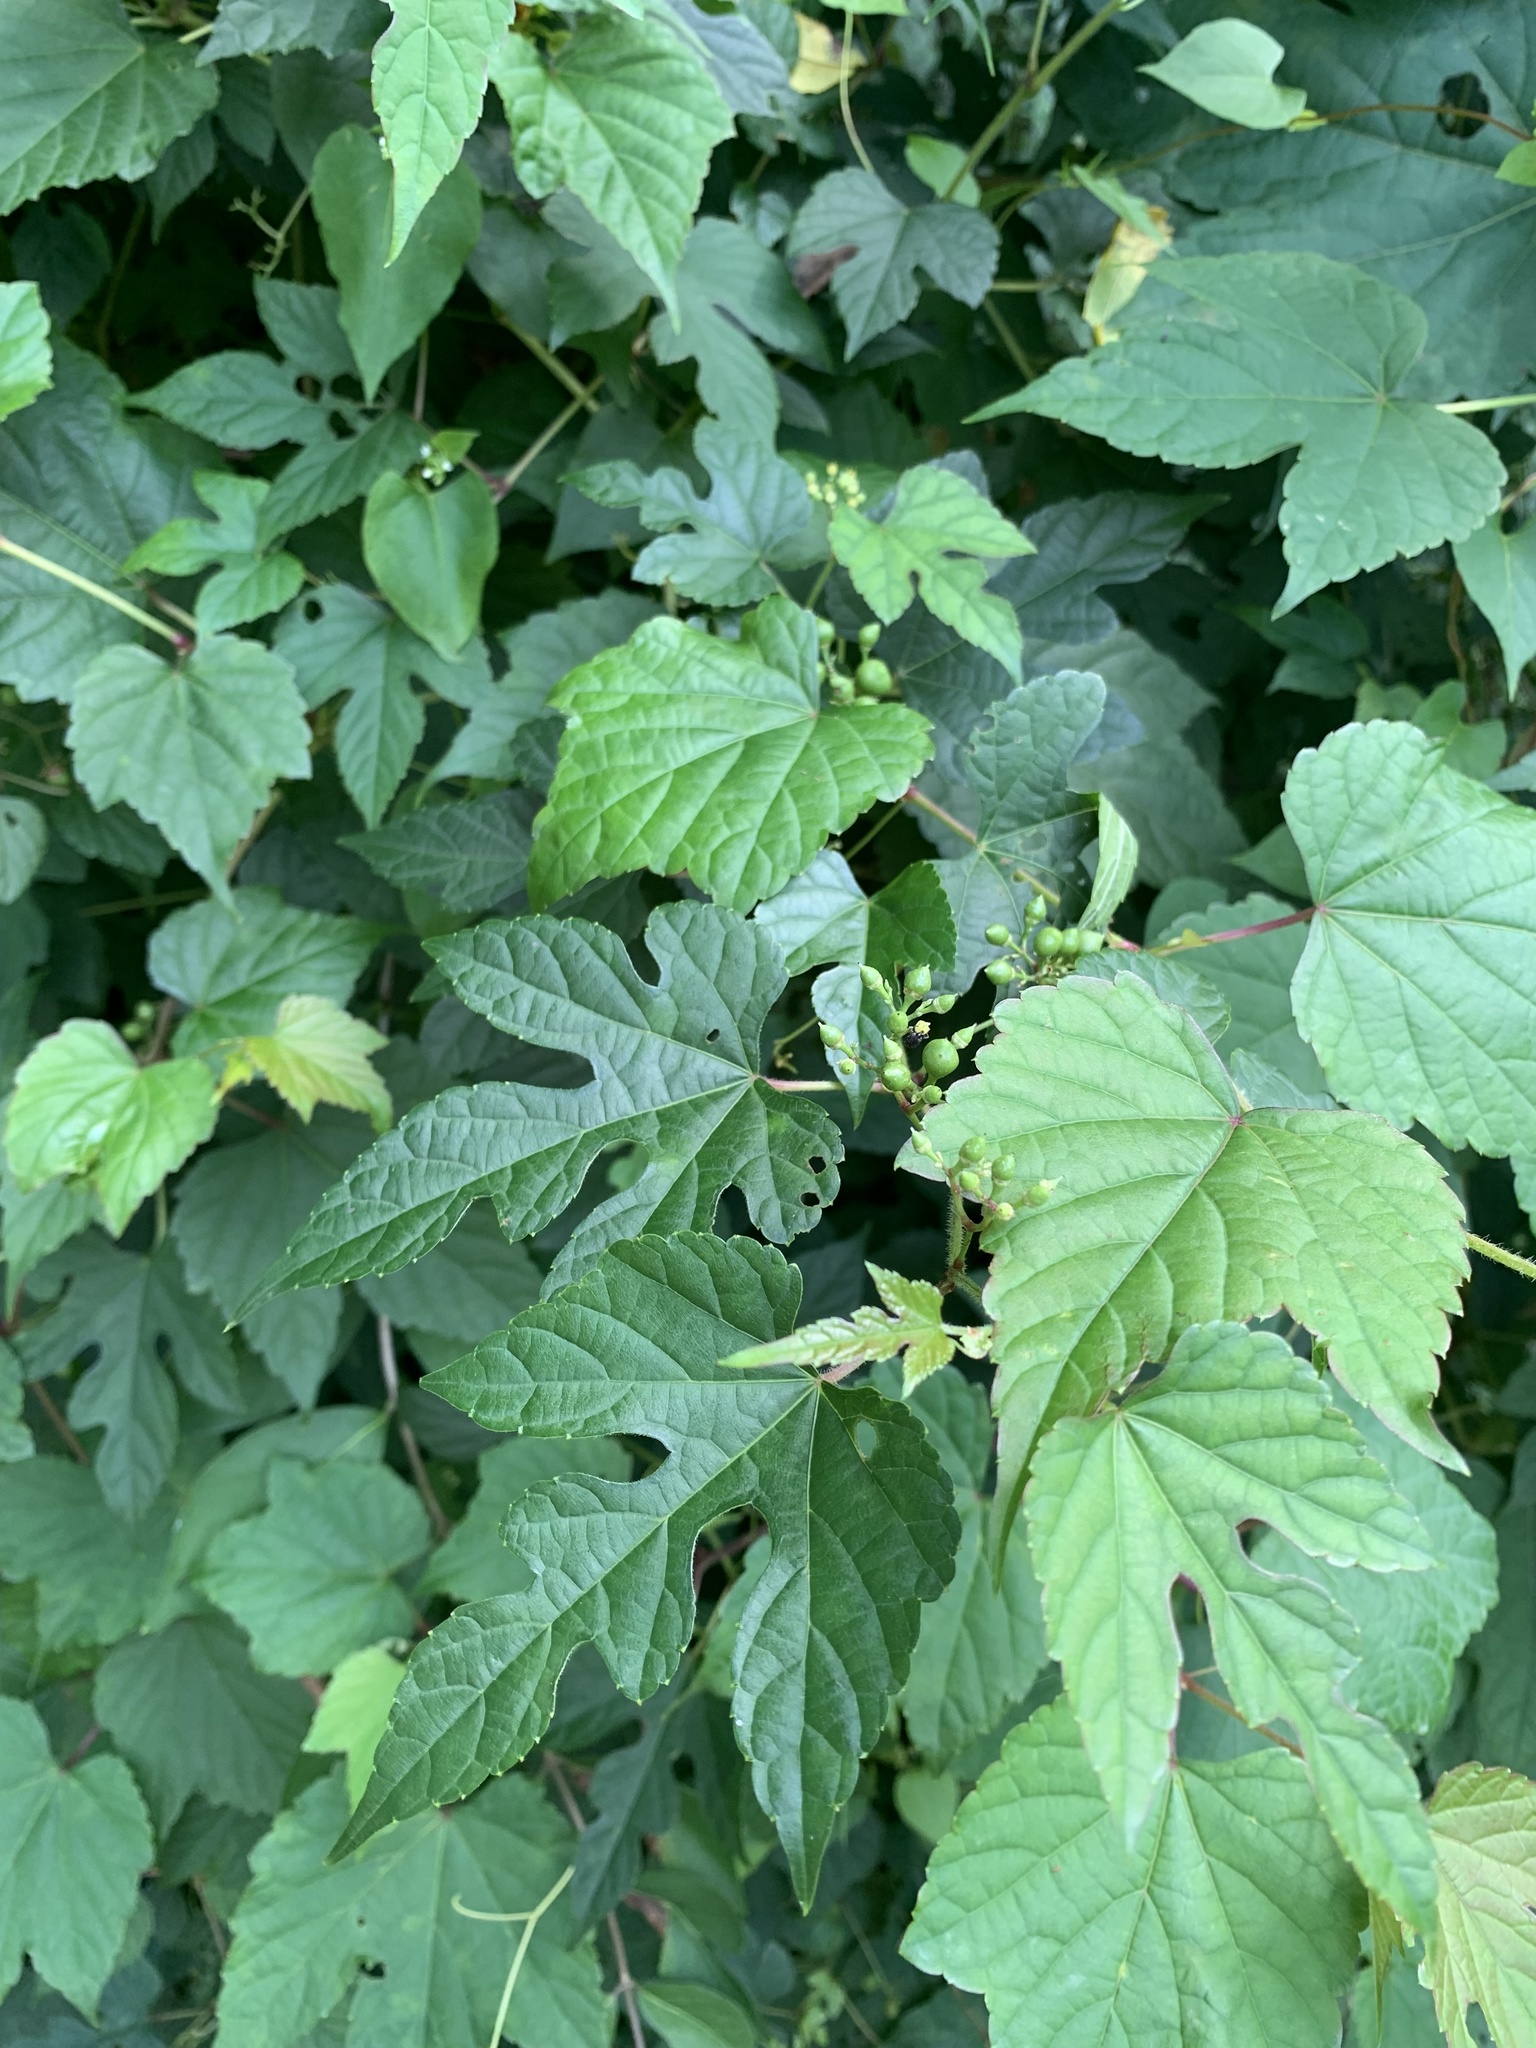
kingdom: Plantae
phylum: Tracheophyta
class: Magnoliopsida
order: Vitales
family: Vitaceae
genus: Ampelopsis
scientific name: Ampelopsis glandulosa
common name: Amur peppervine
